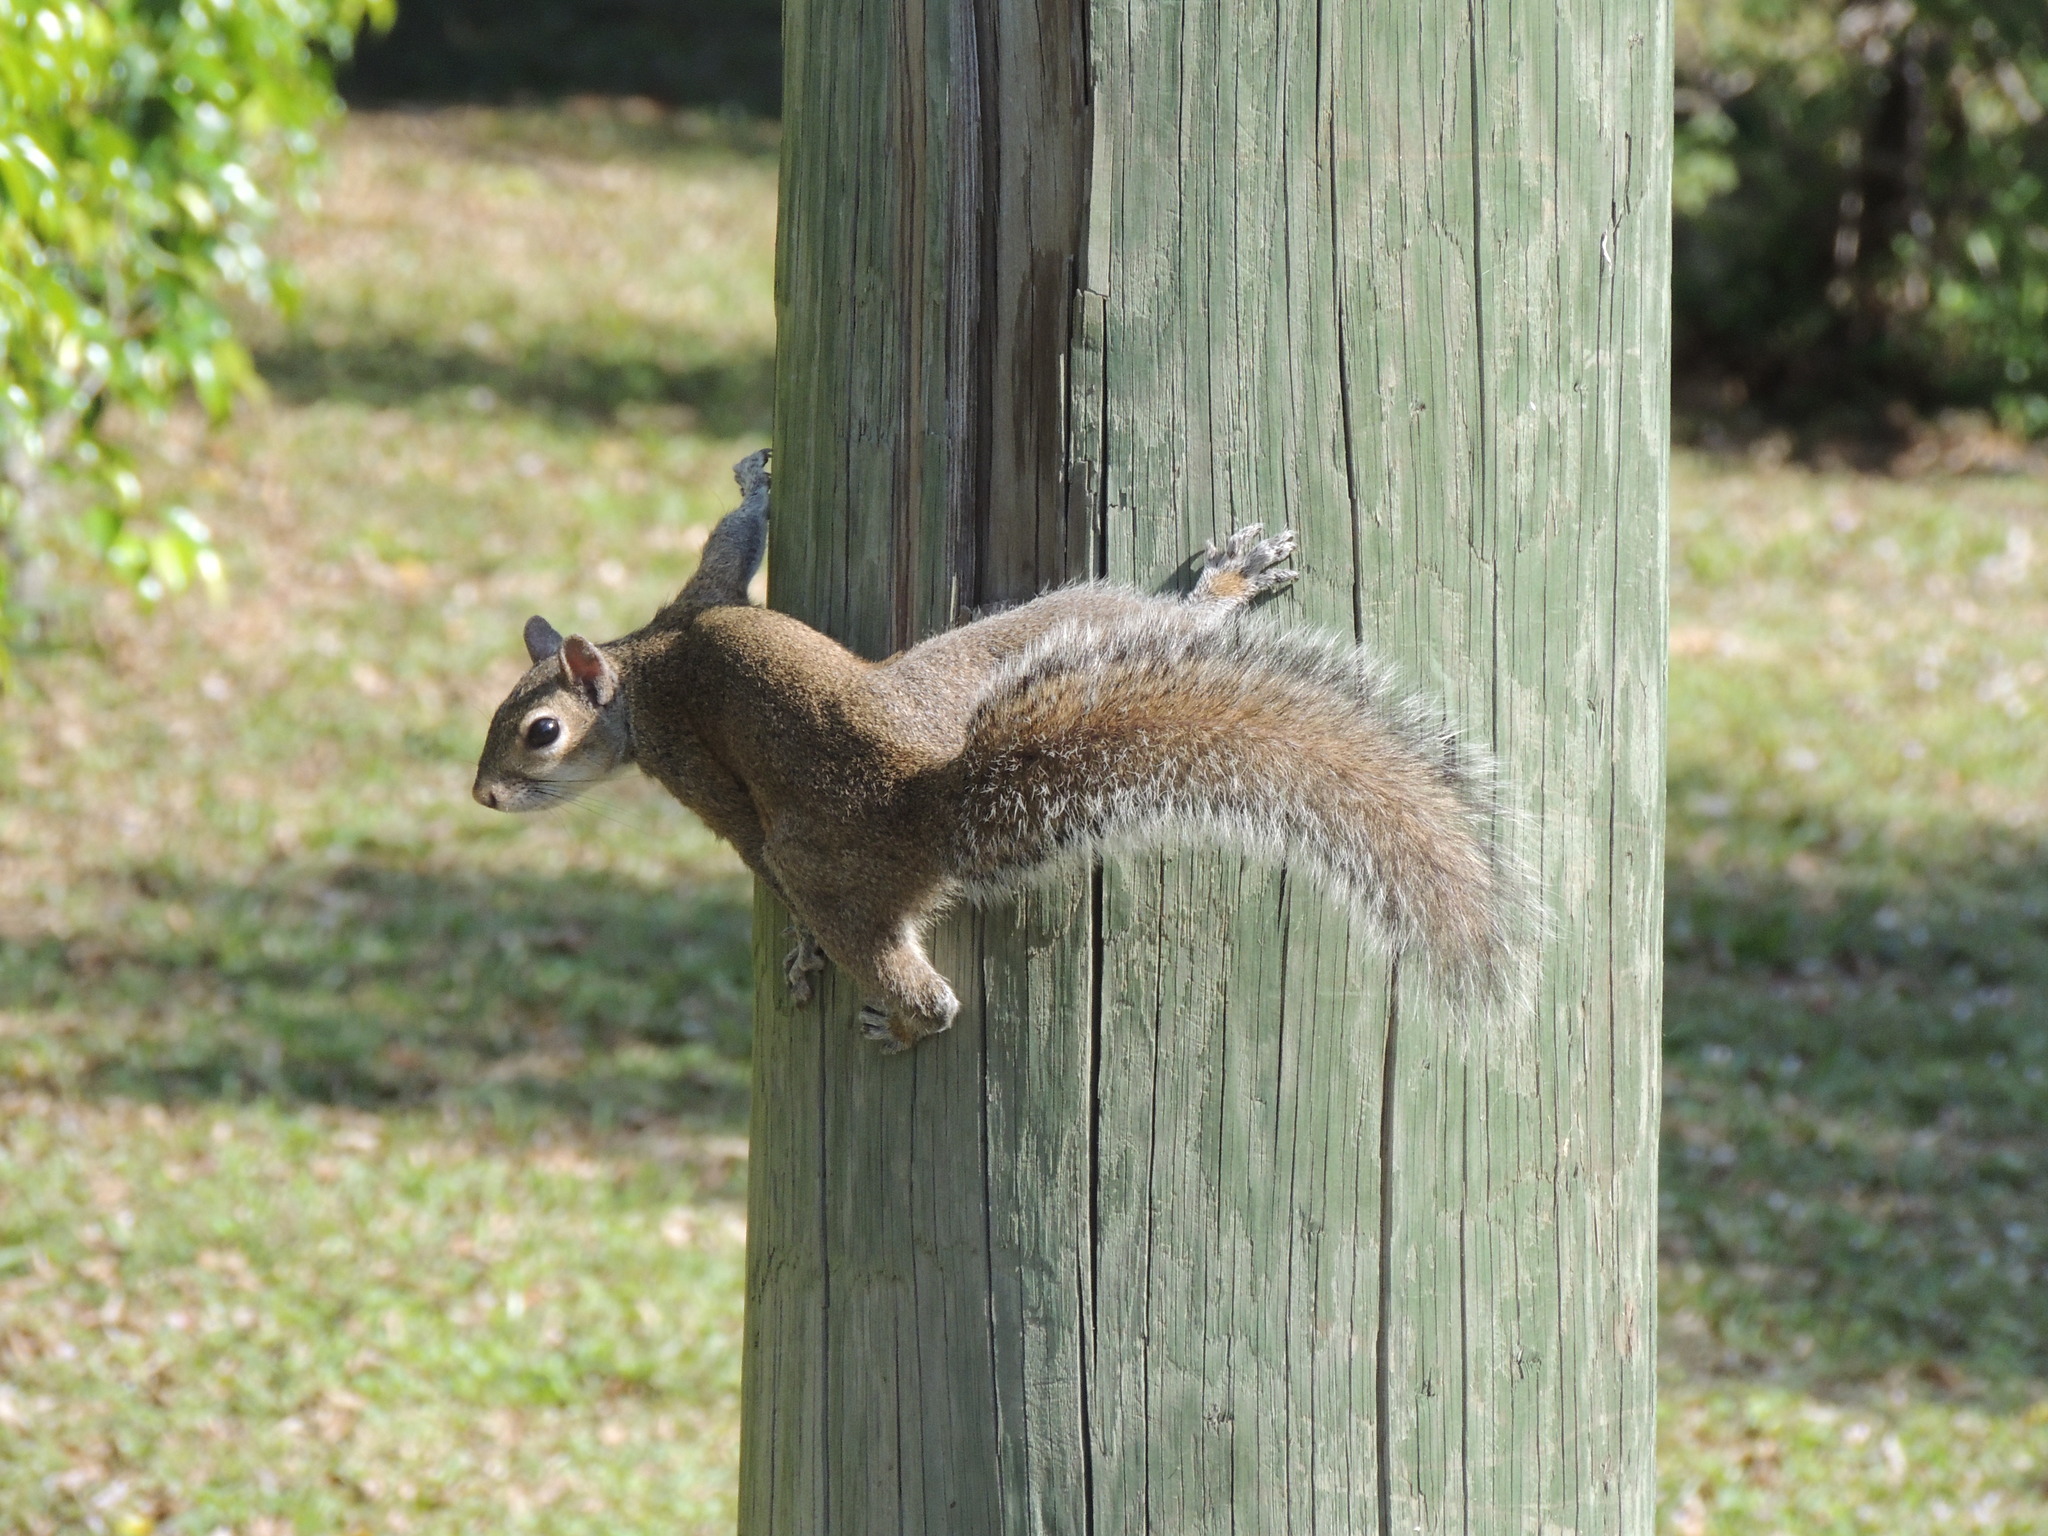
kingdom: Animalia
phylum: Chordata
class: Mammalia
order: Rodentia
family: Sciuridae
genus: Sciurus
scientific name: Sciurus carolinensis
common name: Eastern gray squirrel
